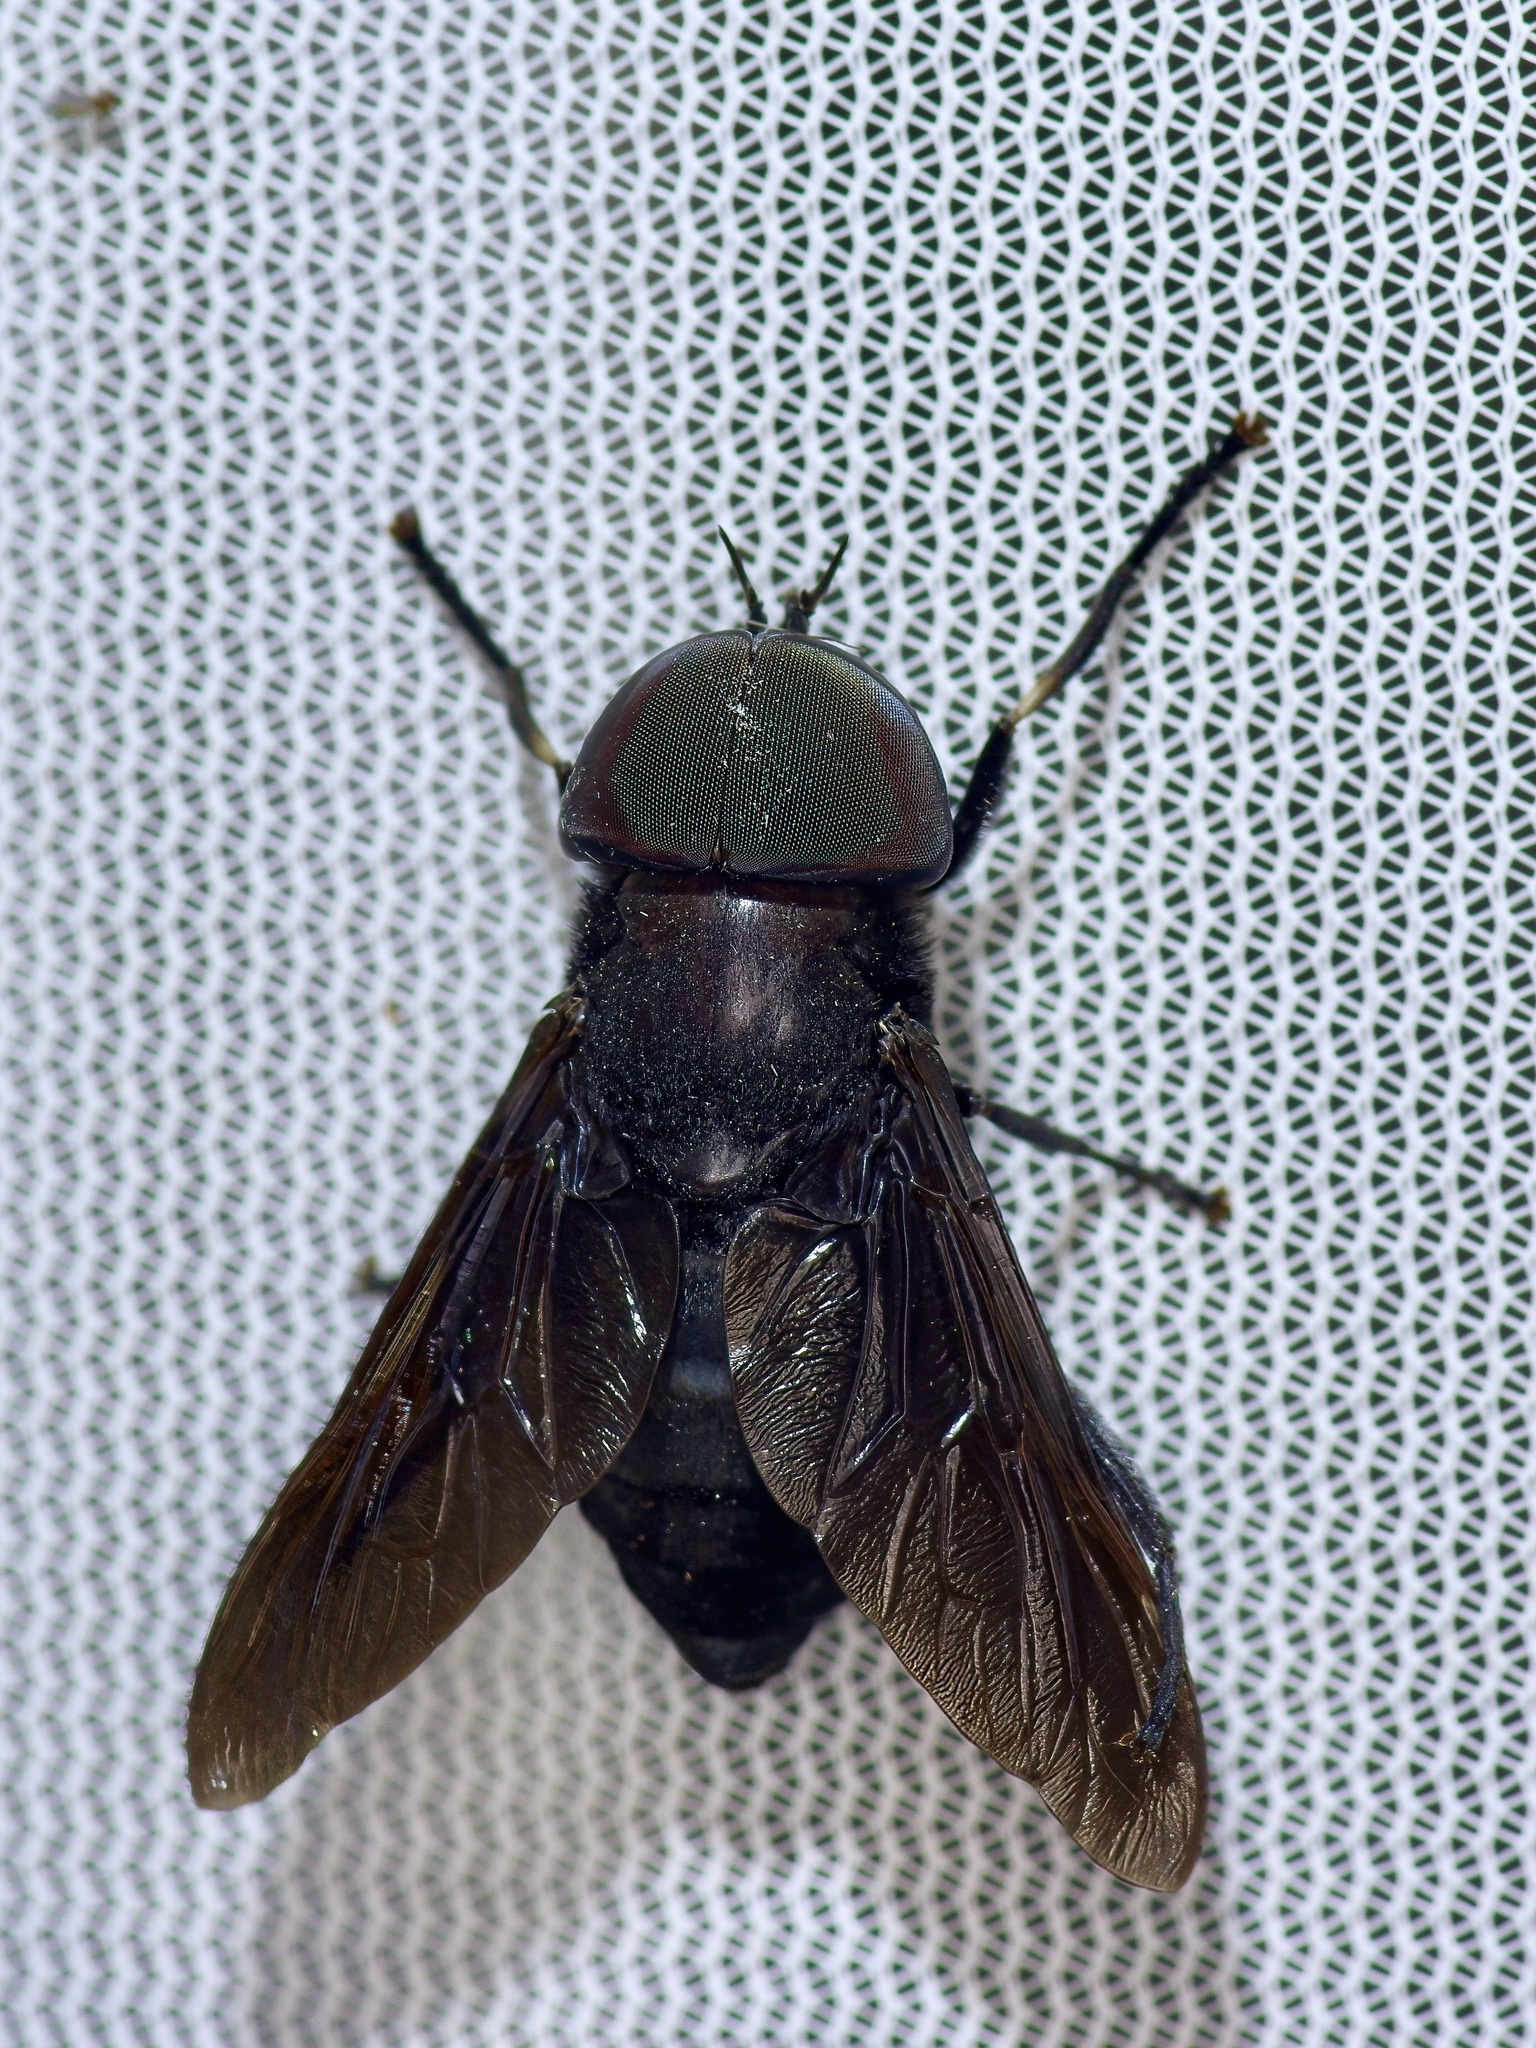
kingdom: Animalia
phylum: Arthropoda
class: Insecta
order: Diptera
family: Tabanidae
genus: Tabanus
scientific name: Tabanus atratus
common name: Black horse fly
